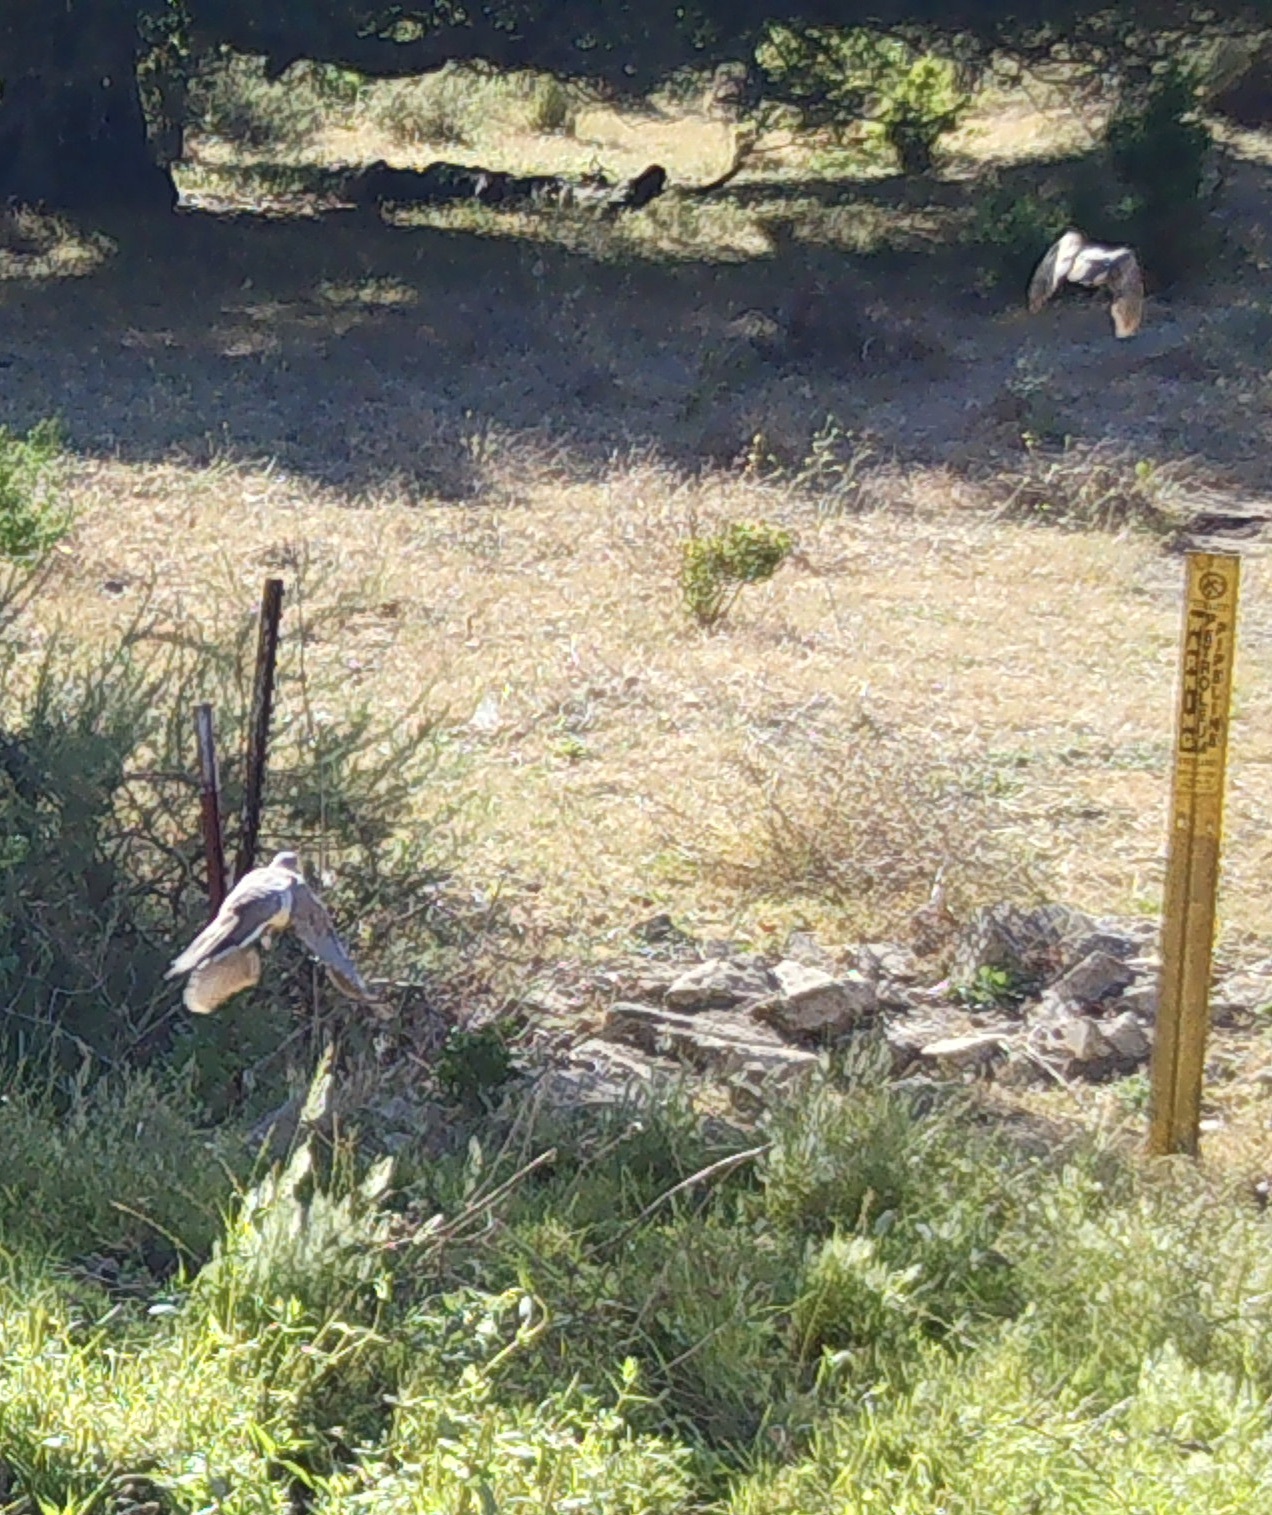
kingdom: Animalia
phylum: Chordata
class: Aves
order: Columbiformes
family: Columbidae
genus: Zenaida
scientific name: Zenaida macroura
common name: Mourning dove
